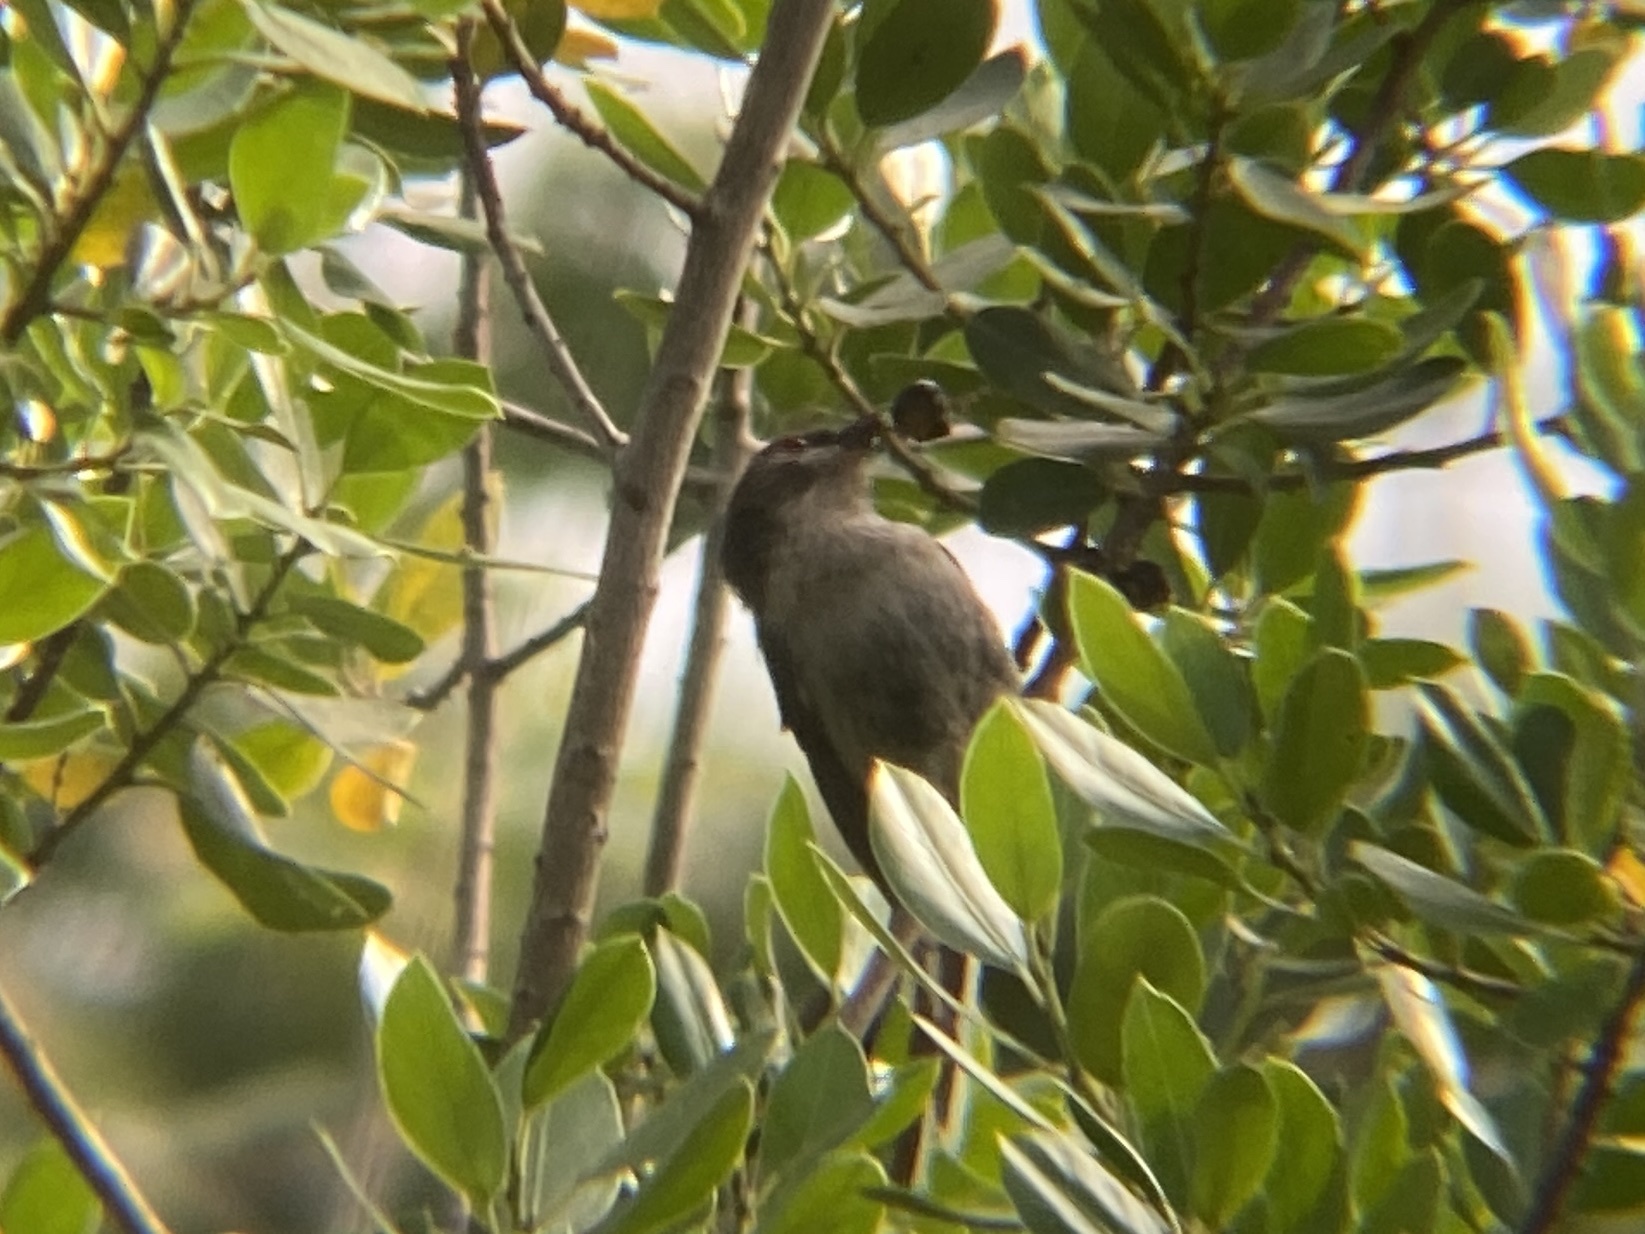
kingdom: Animalia
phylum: Chordata
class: Aves
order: Passeriformes
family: Aegithalidae
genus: Aegithalos
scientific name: Aegithalos caudatus
